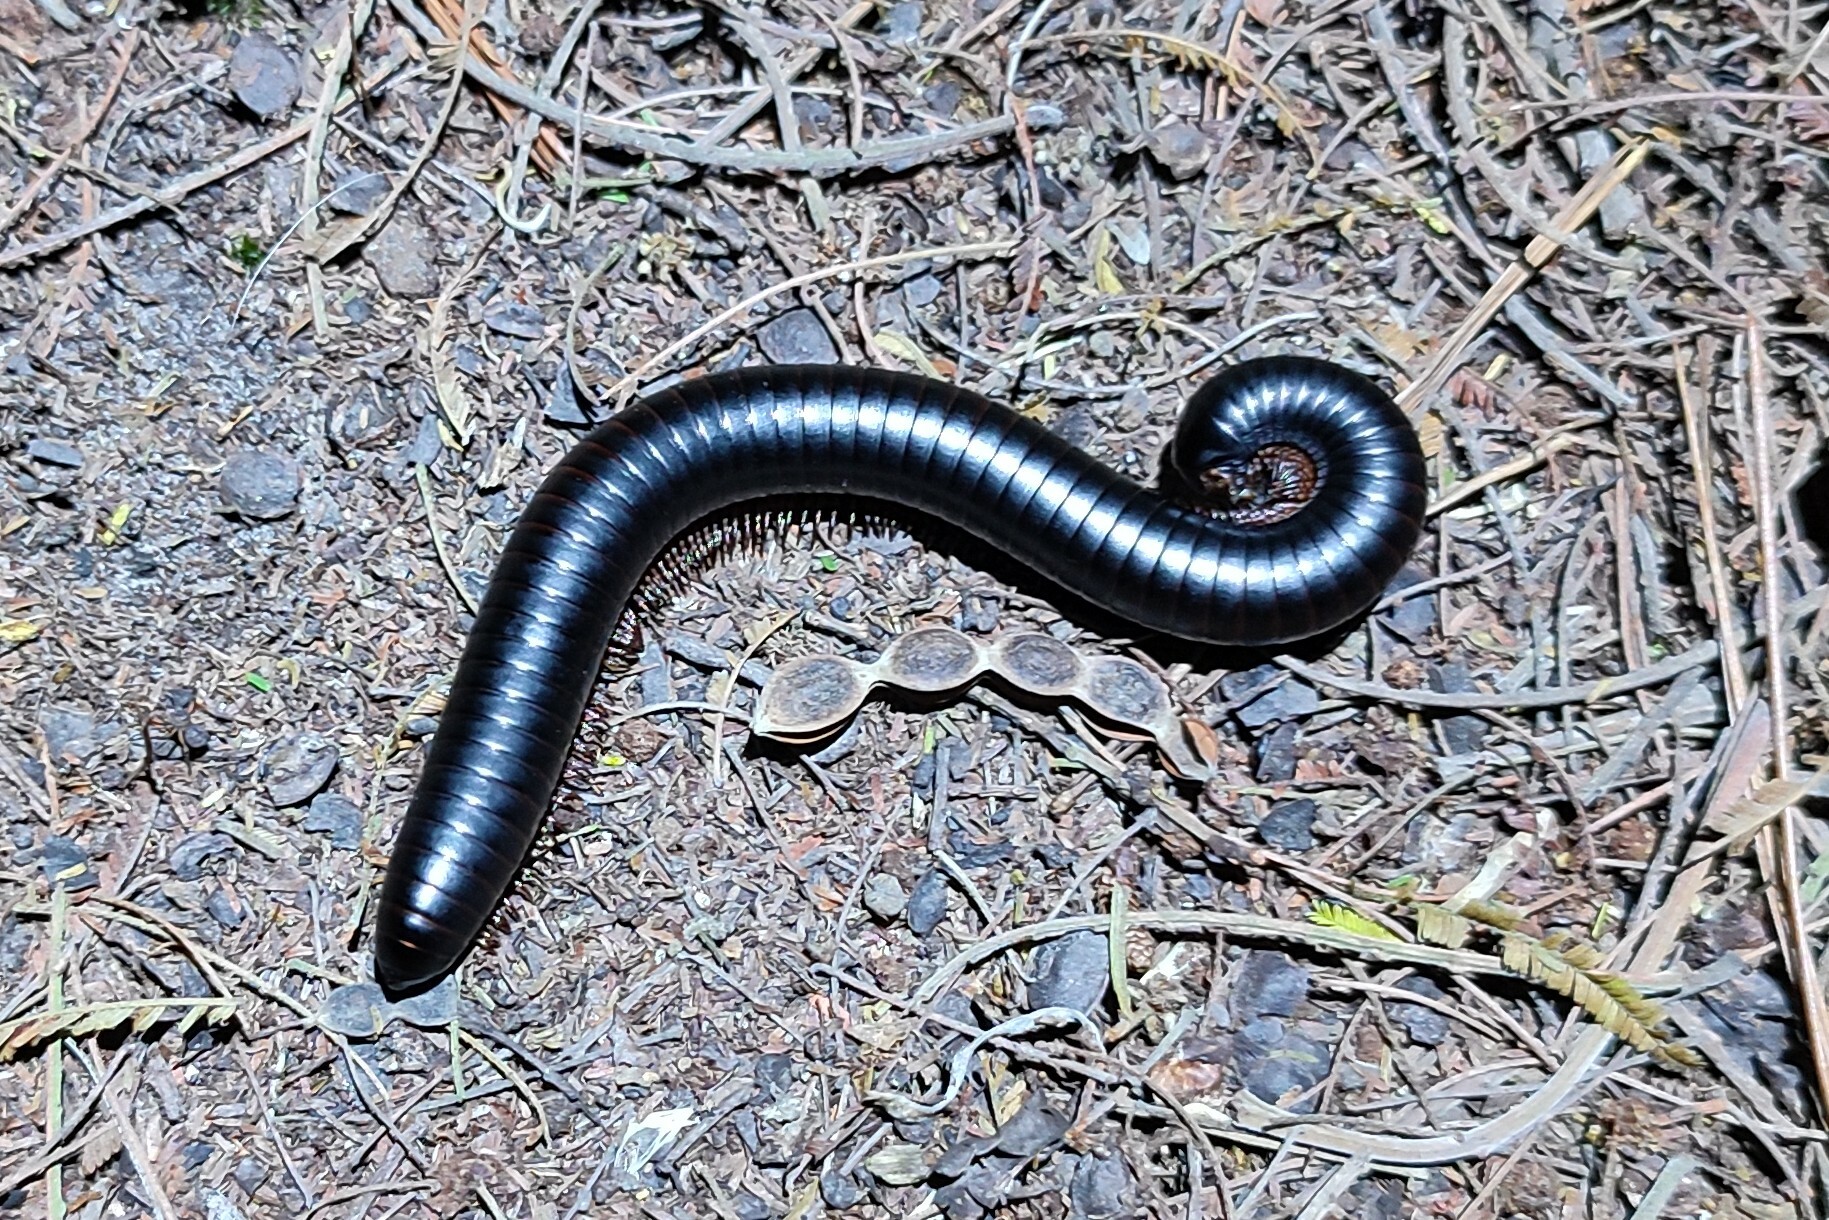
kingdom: Animalia
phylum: Arthropoda
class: Diplopoda
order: Spirostreptida
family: Spirostreptidae
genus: Doratogonus
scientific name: Doratogonus annulipes
